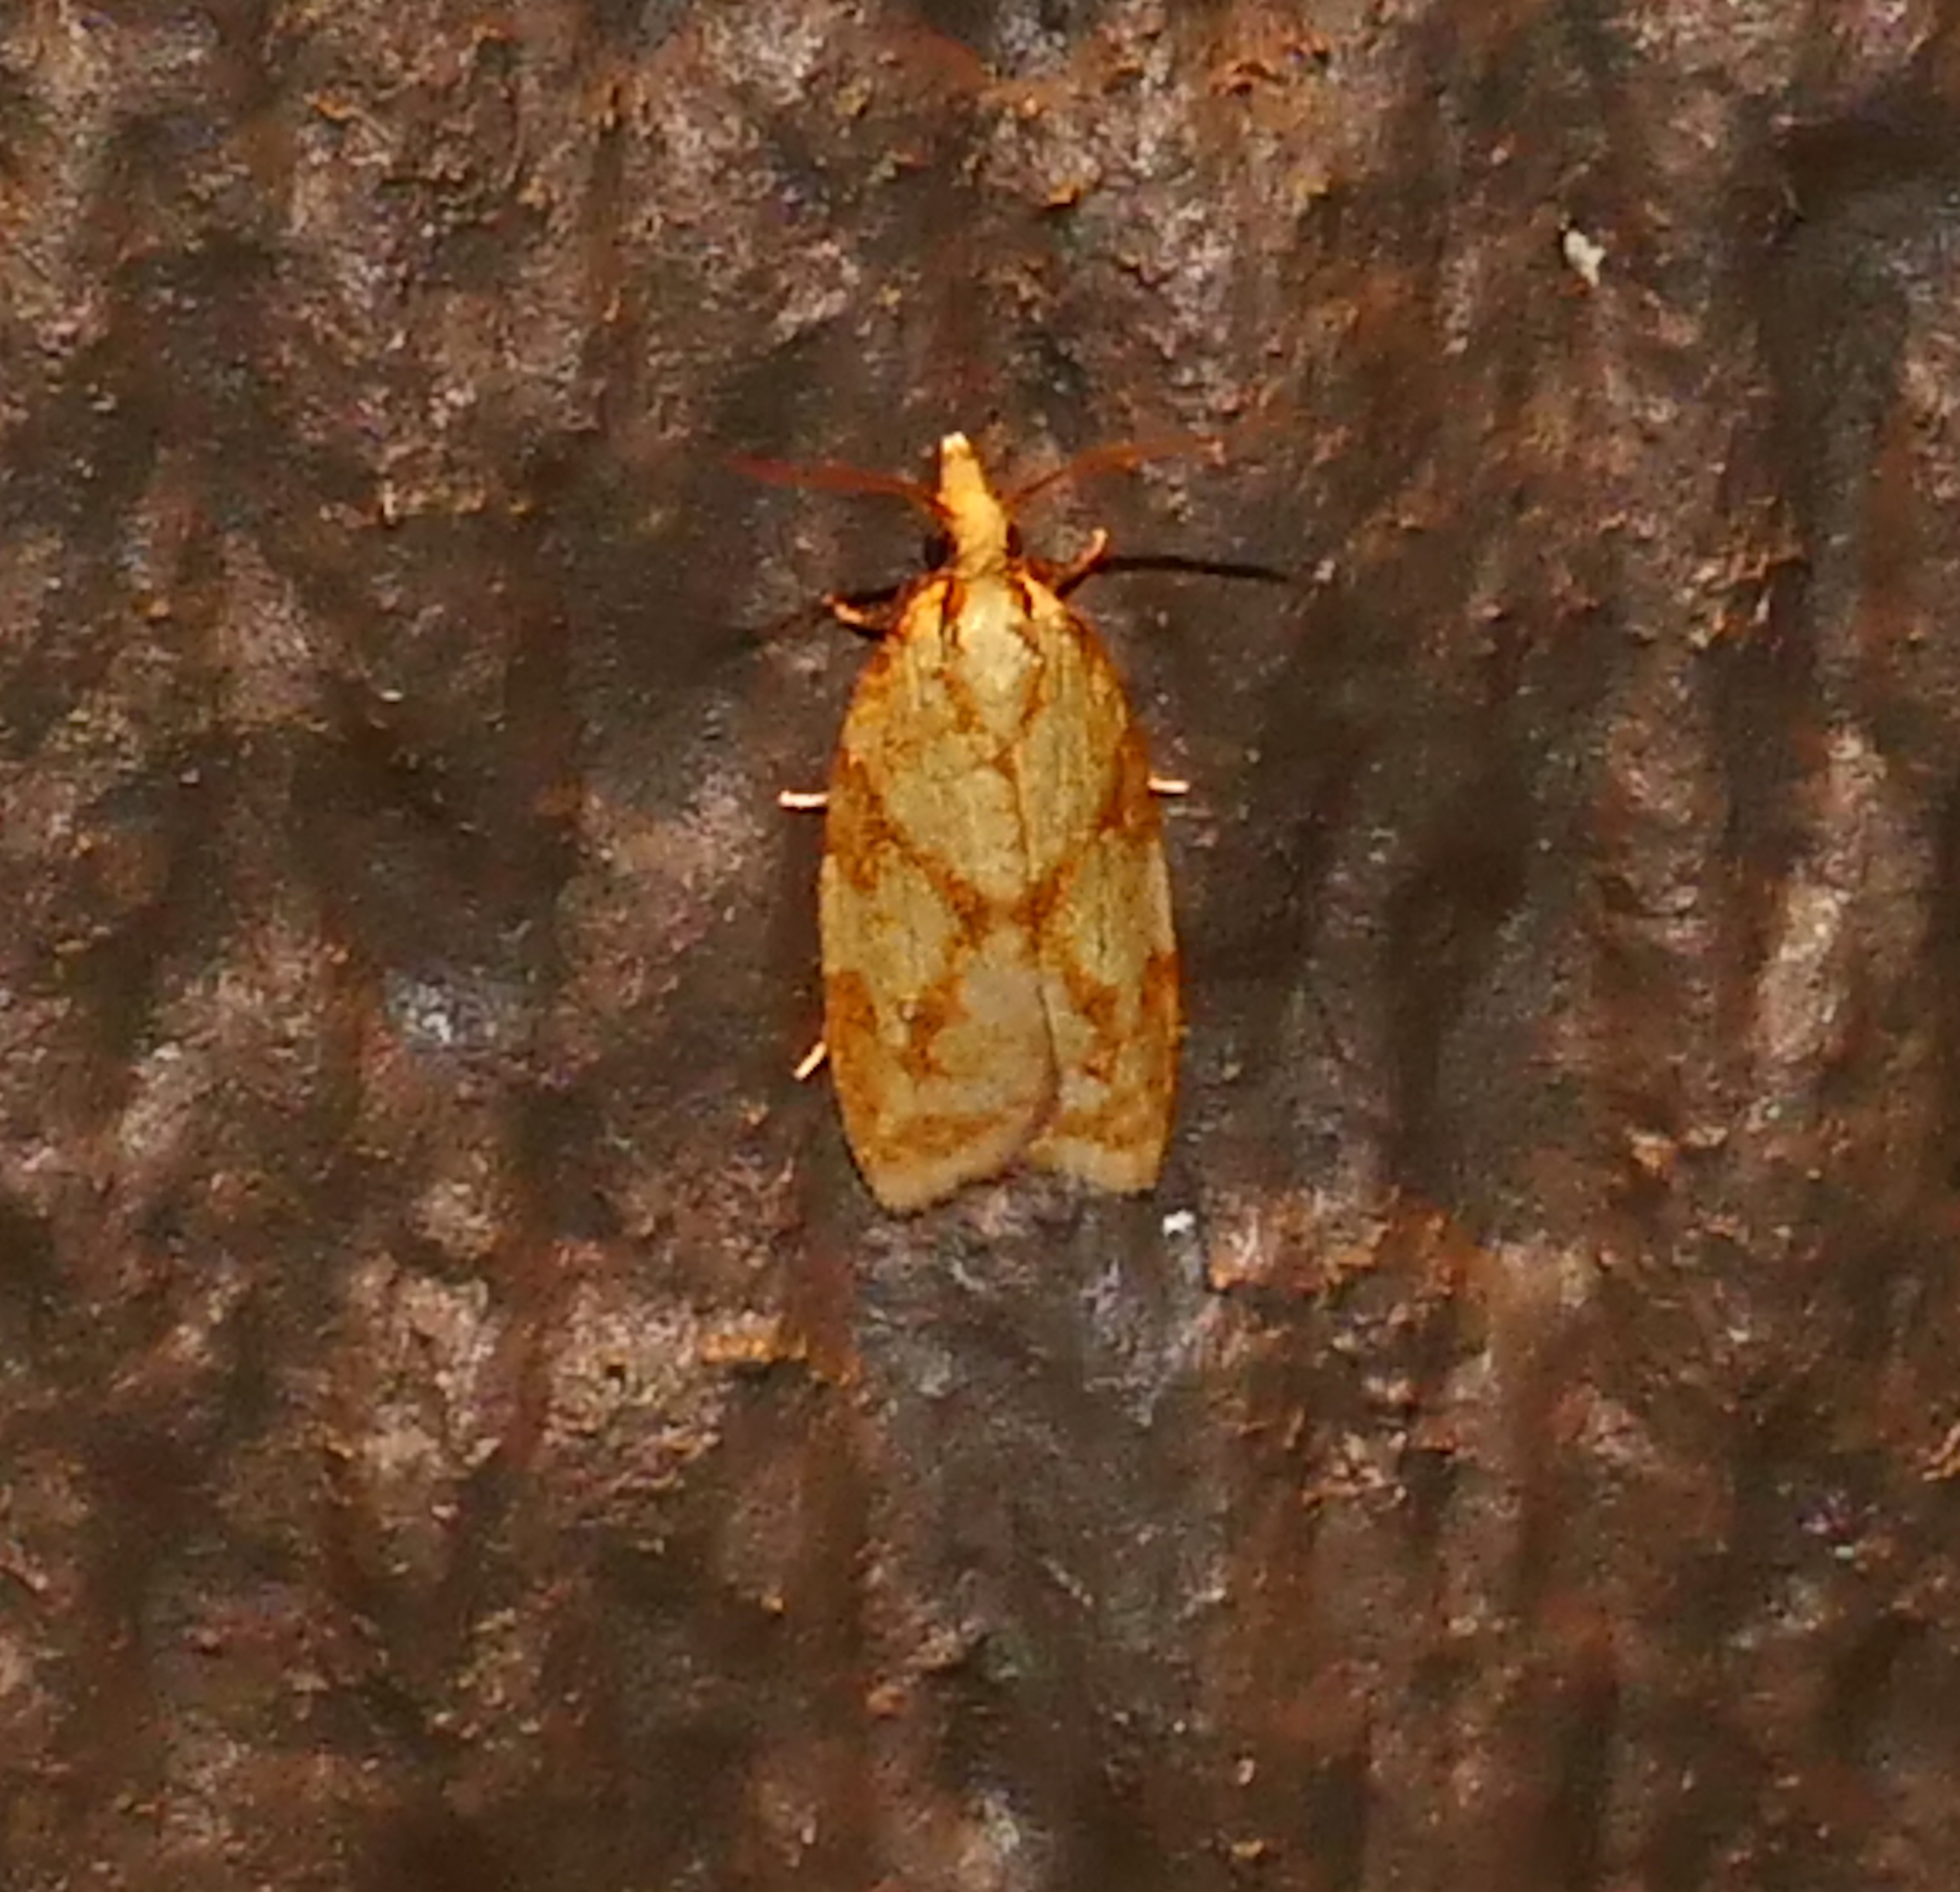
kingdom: Animalia
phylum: Arthropoda
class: Insecta
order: Lepidoptera
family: Tortricidae
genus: Sparganothis
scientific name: Sparganothis sulfureana
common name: Sparganothis fruitworm moth
